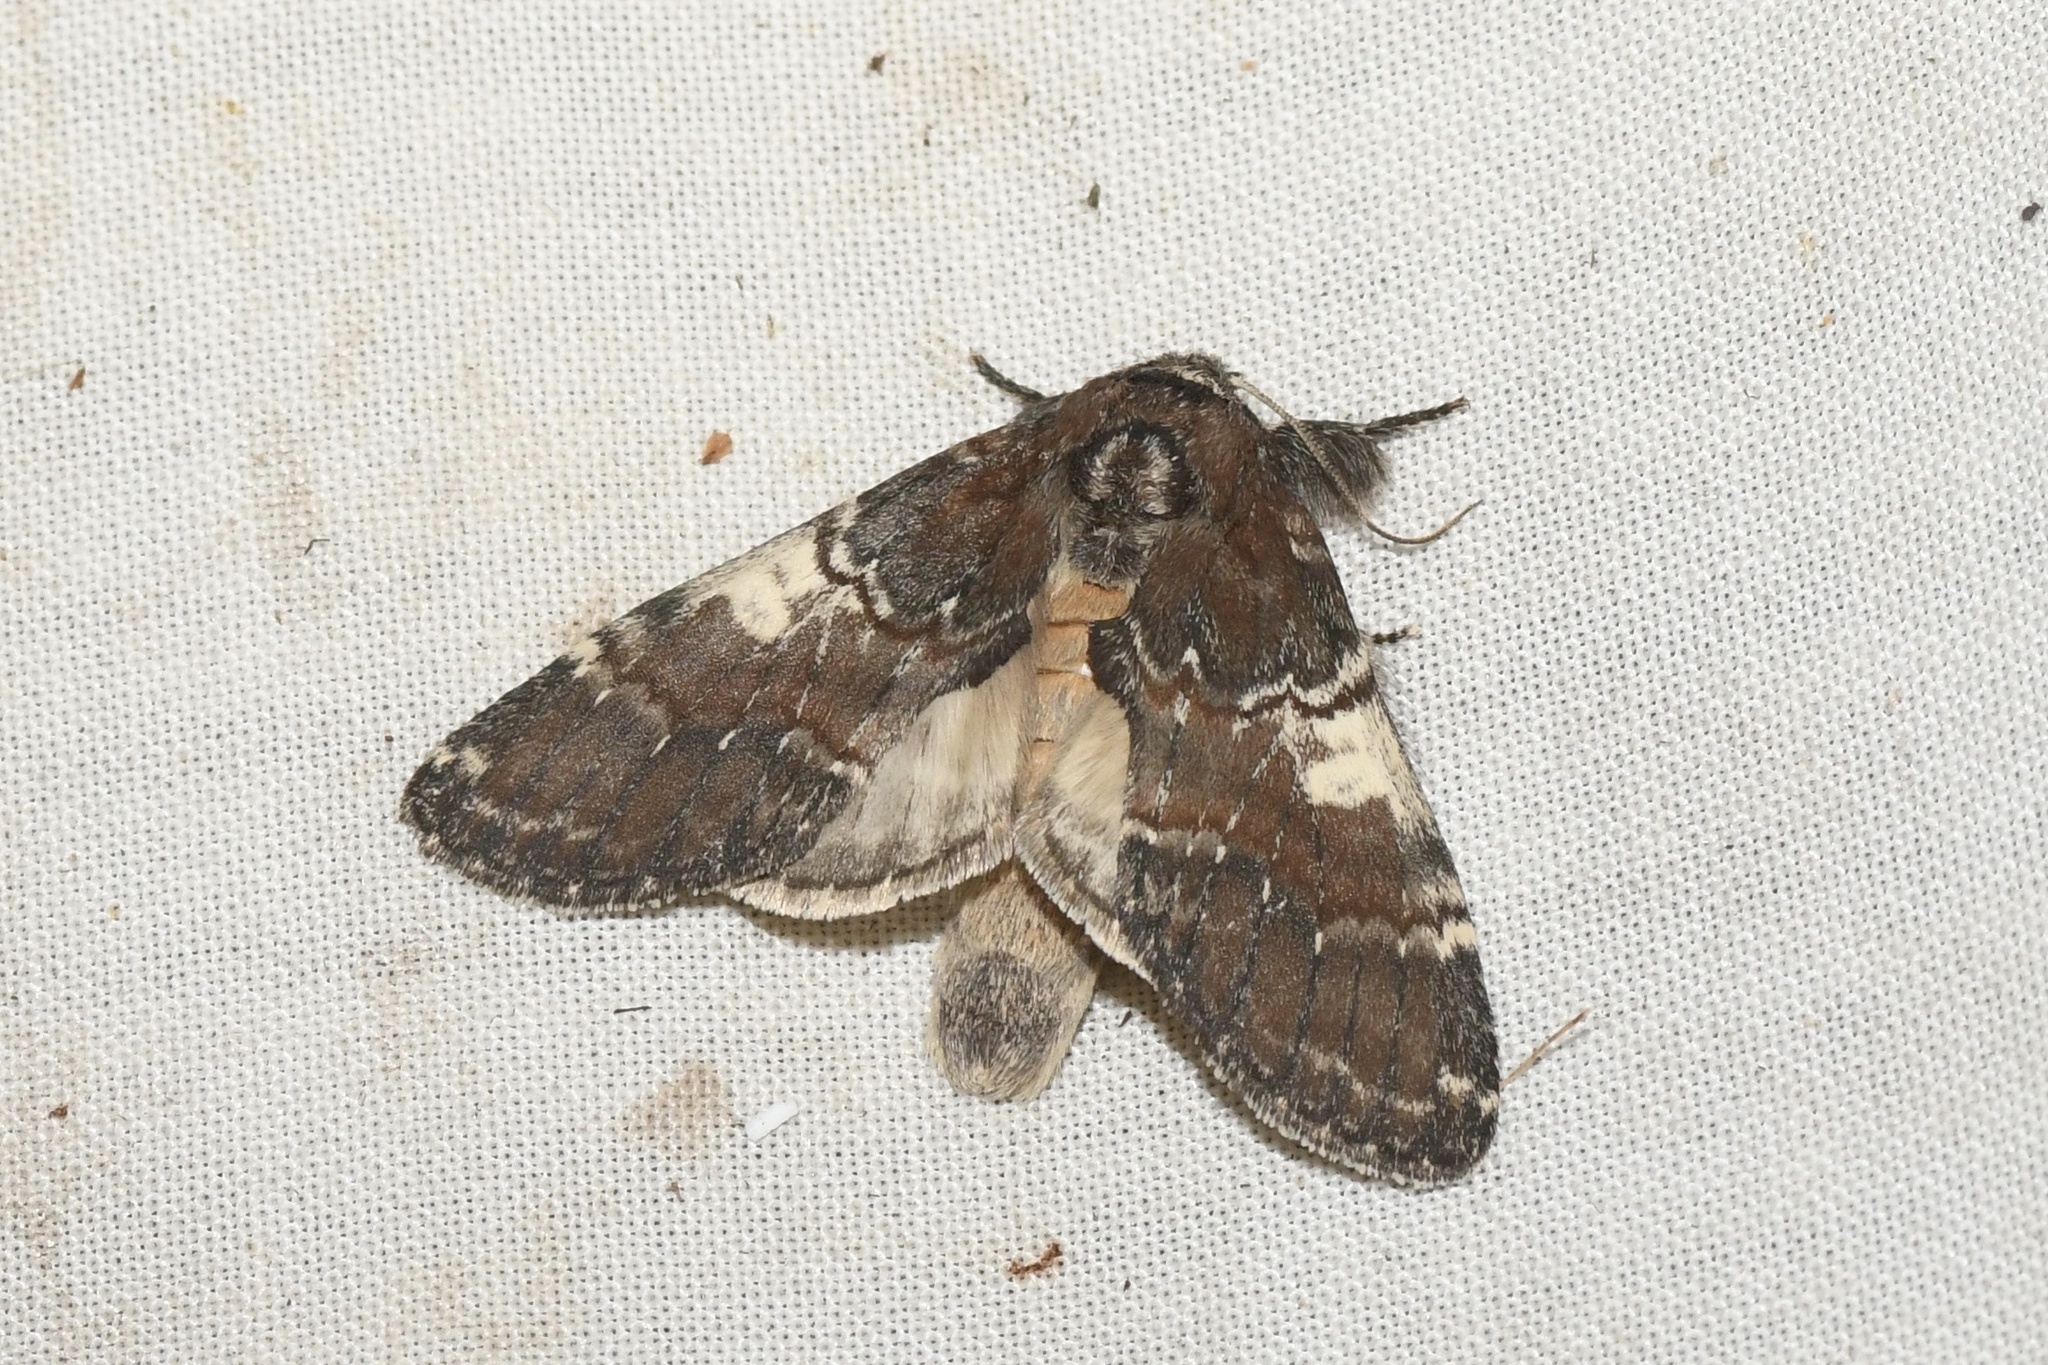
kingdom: Animalia
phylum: Arthropoda
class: Insecta
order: Lepidoptera
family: Notodontidae
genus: Peridea
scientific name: Peridea ferruginea
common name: Chocolate prominent
